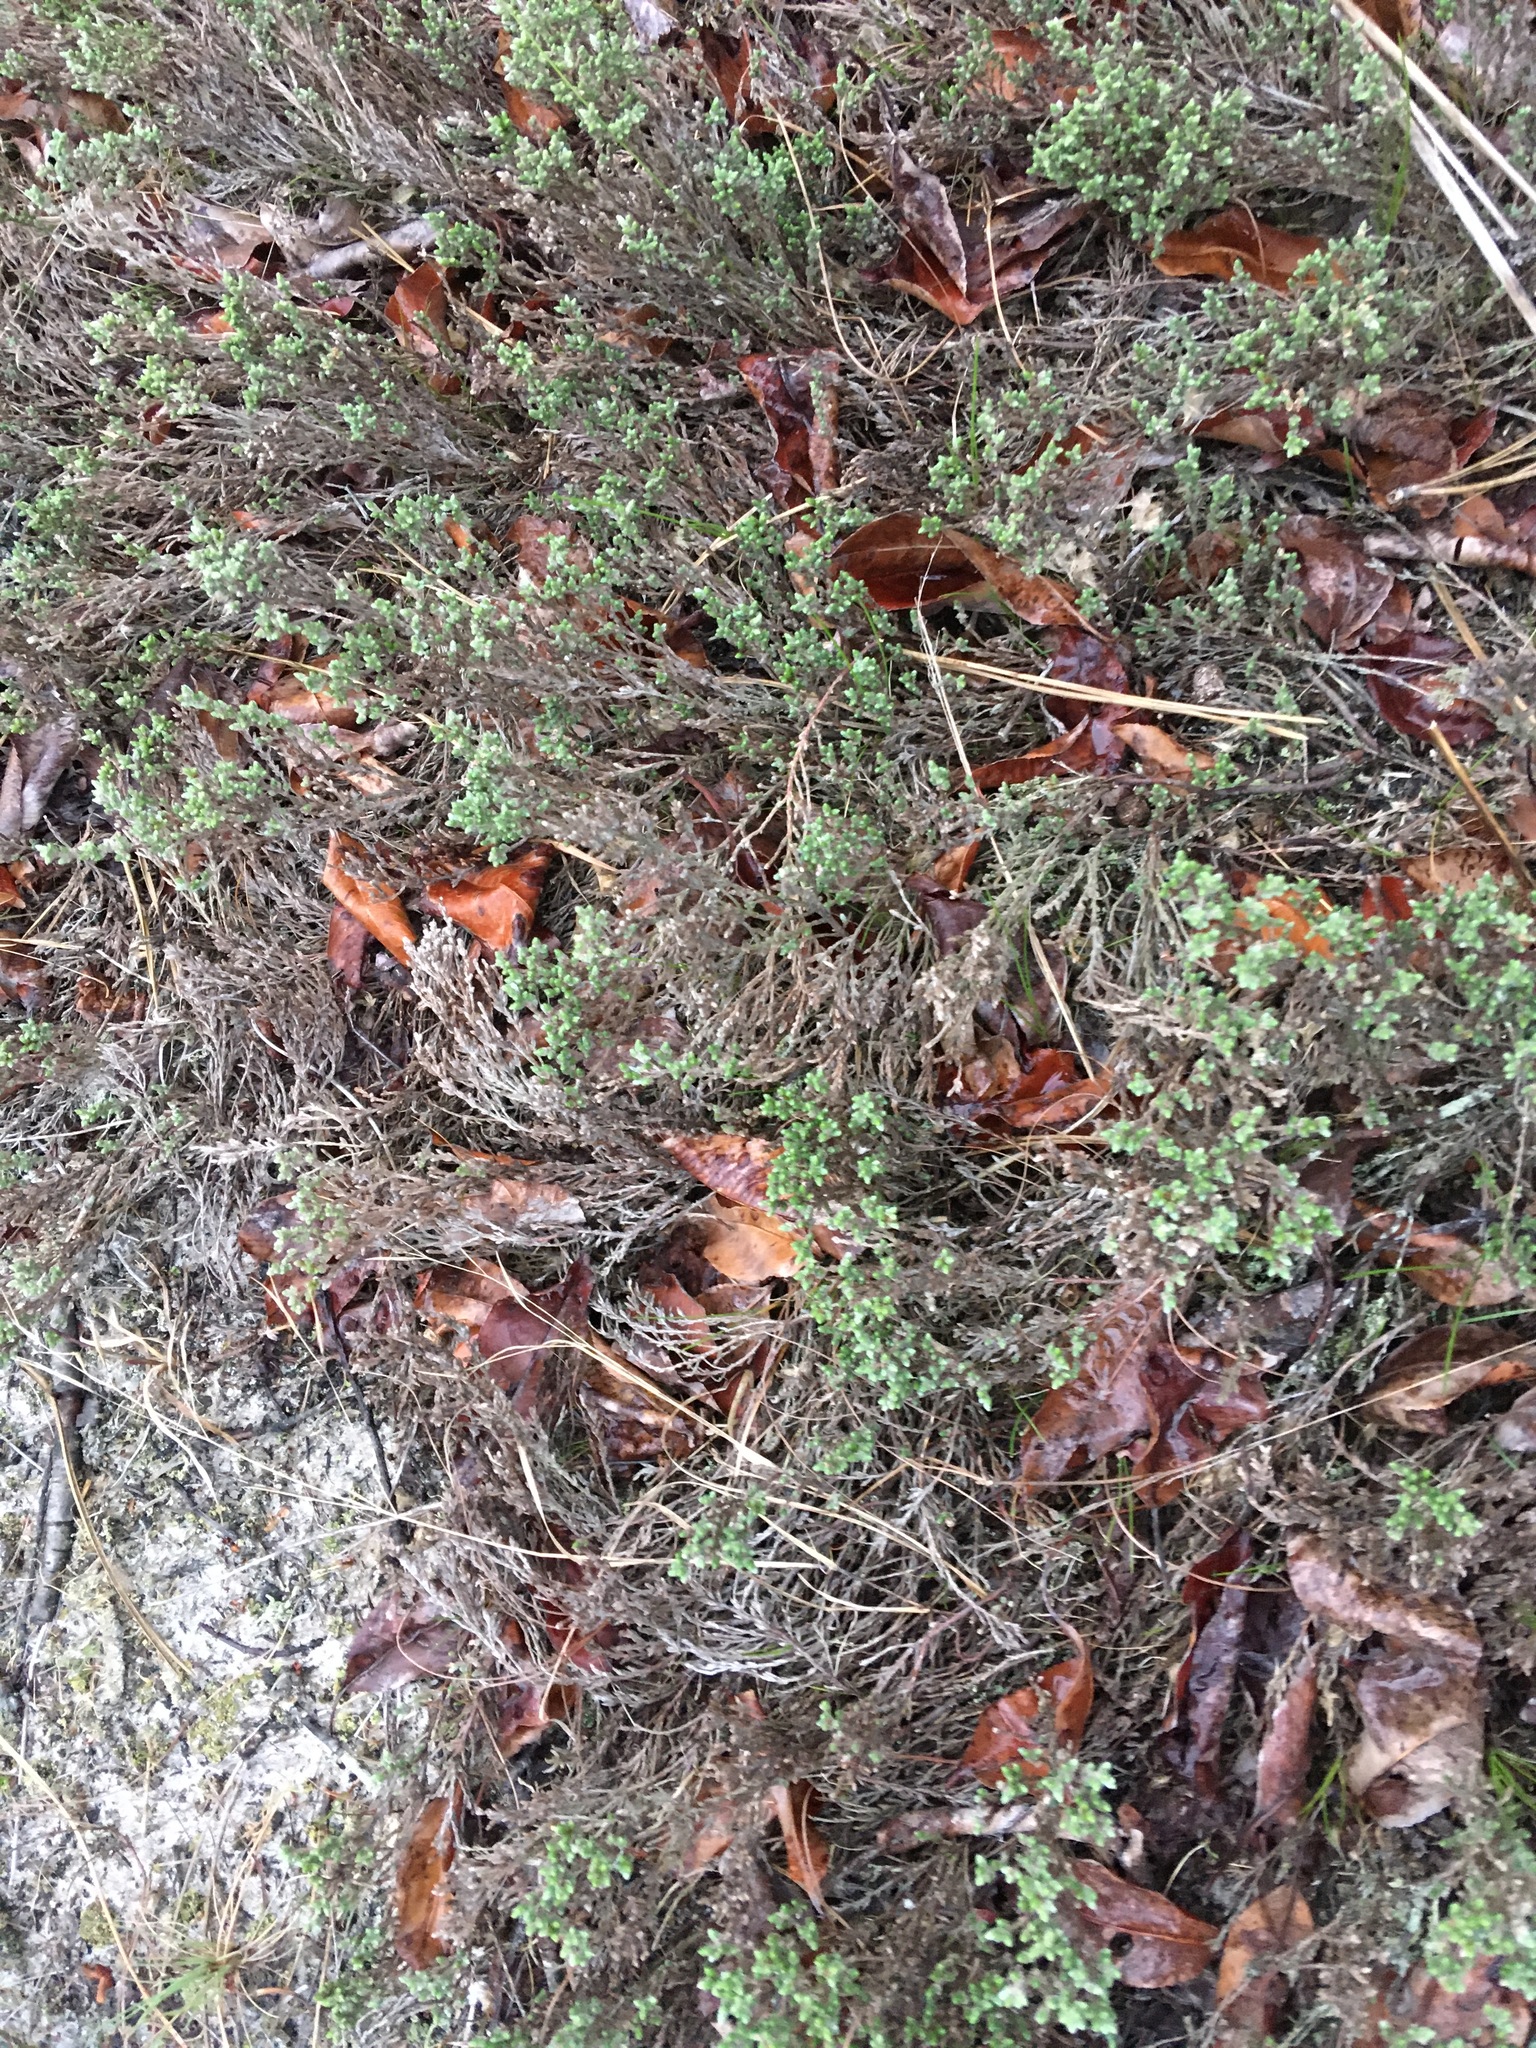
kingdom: Plantae
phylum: Tracheophyta
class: Magnoliopsida
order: Malvales
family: Cistaceae
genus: Hudsonia
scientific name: Hudsonia tomentosa
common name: Beach-heath
